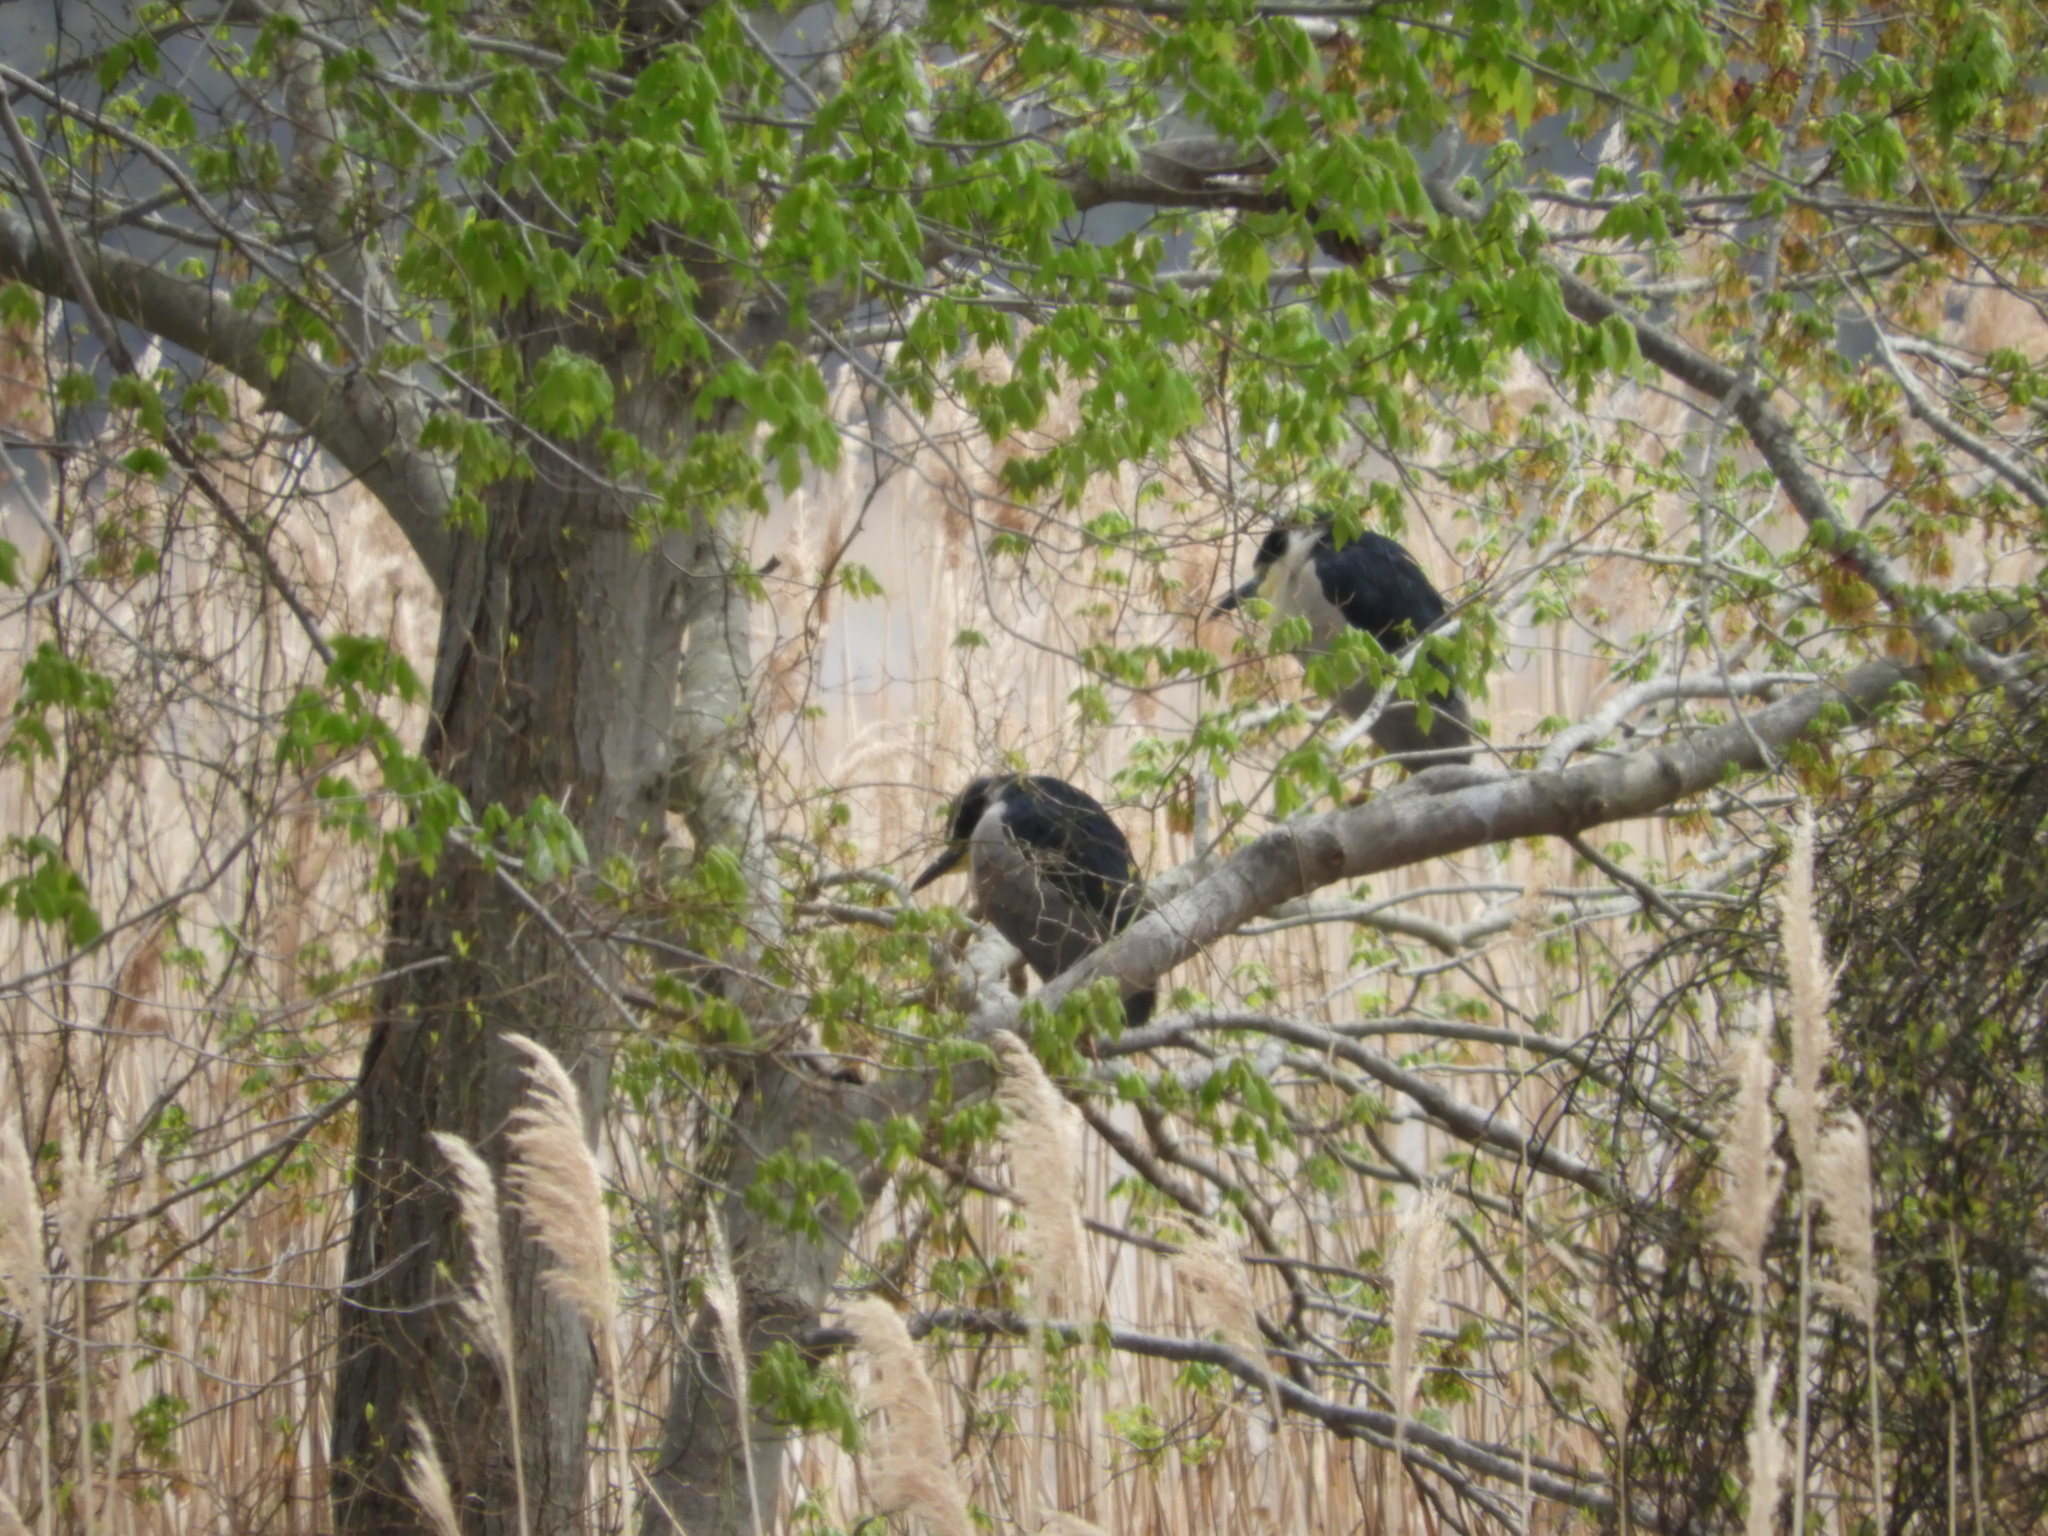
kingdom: Animalia
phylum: Chordata
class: Aves
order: Pelecaniformes
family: Ardeidae
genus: Nycticorax
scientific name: Nycticorax nycticorax
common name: Black-crowned night heron
